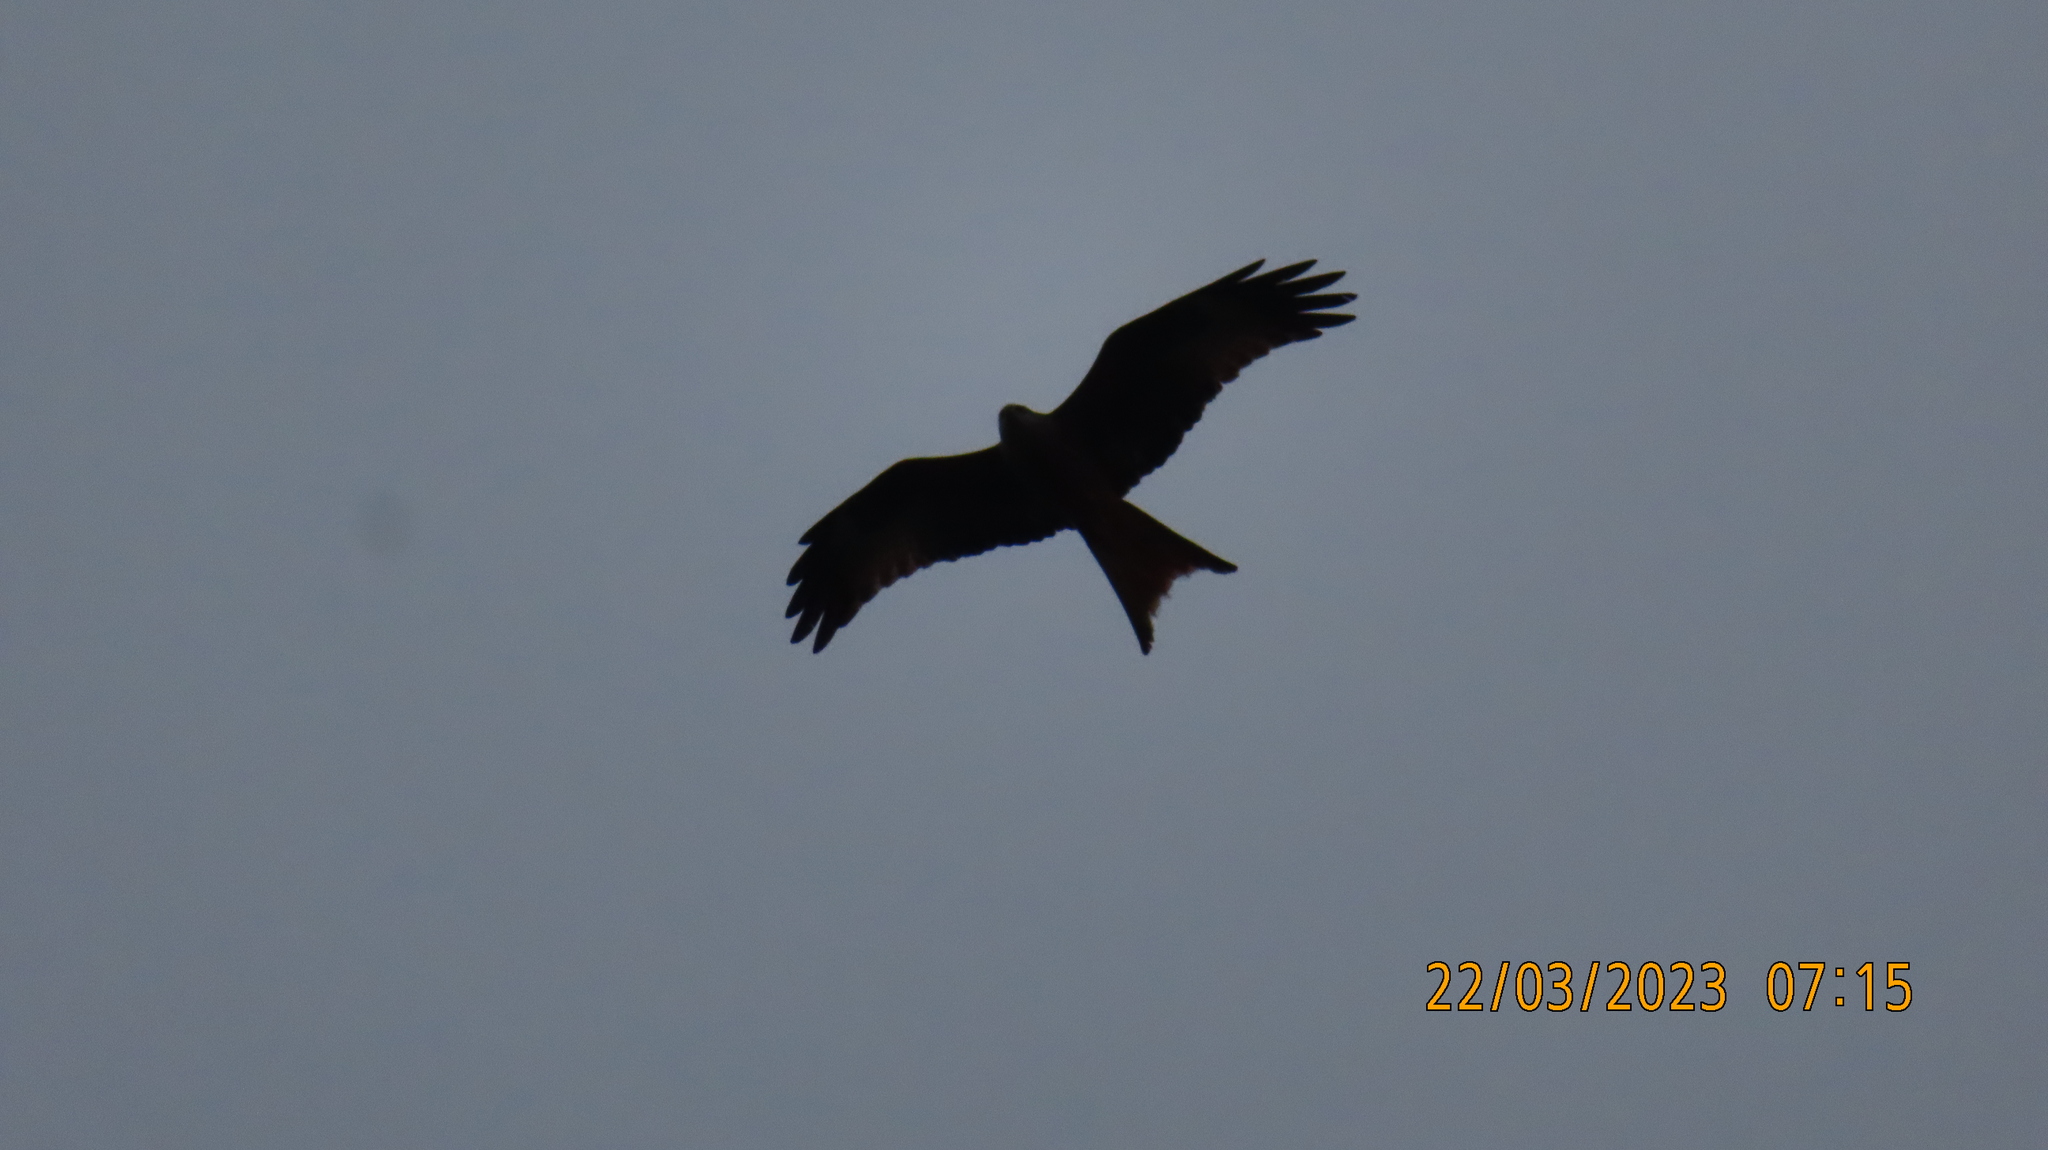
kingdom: Animalia
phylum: Chordata
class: Aves
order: Accipitriformes
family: Accipitridae
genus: Milvus
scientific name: Milvus milvus
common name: Red kite
